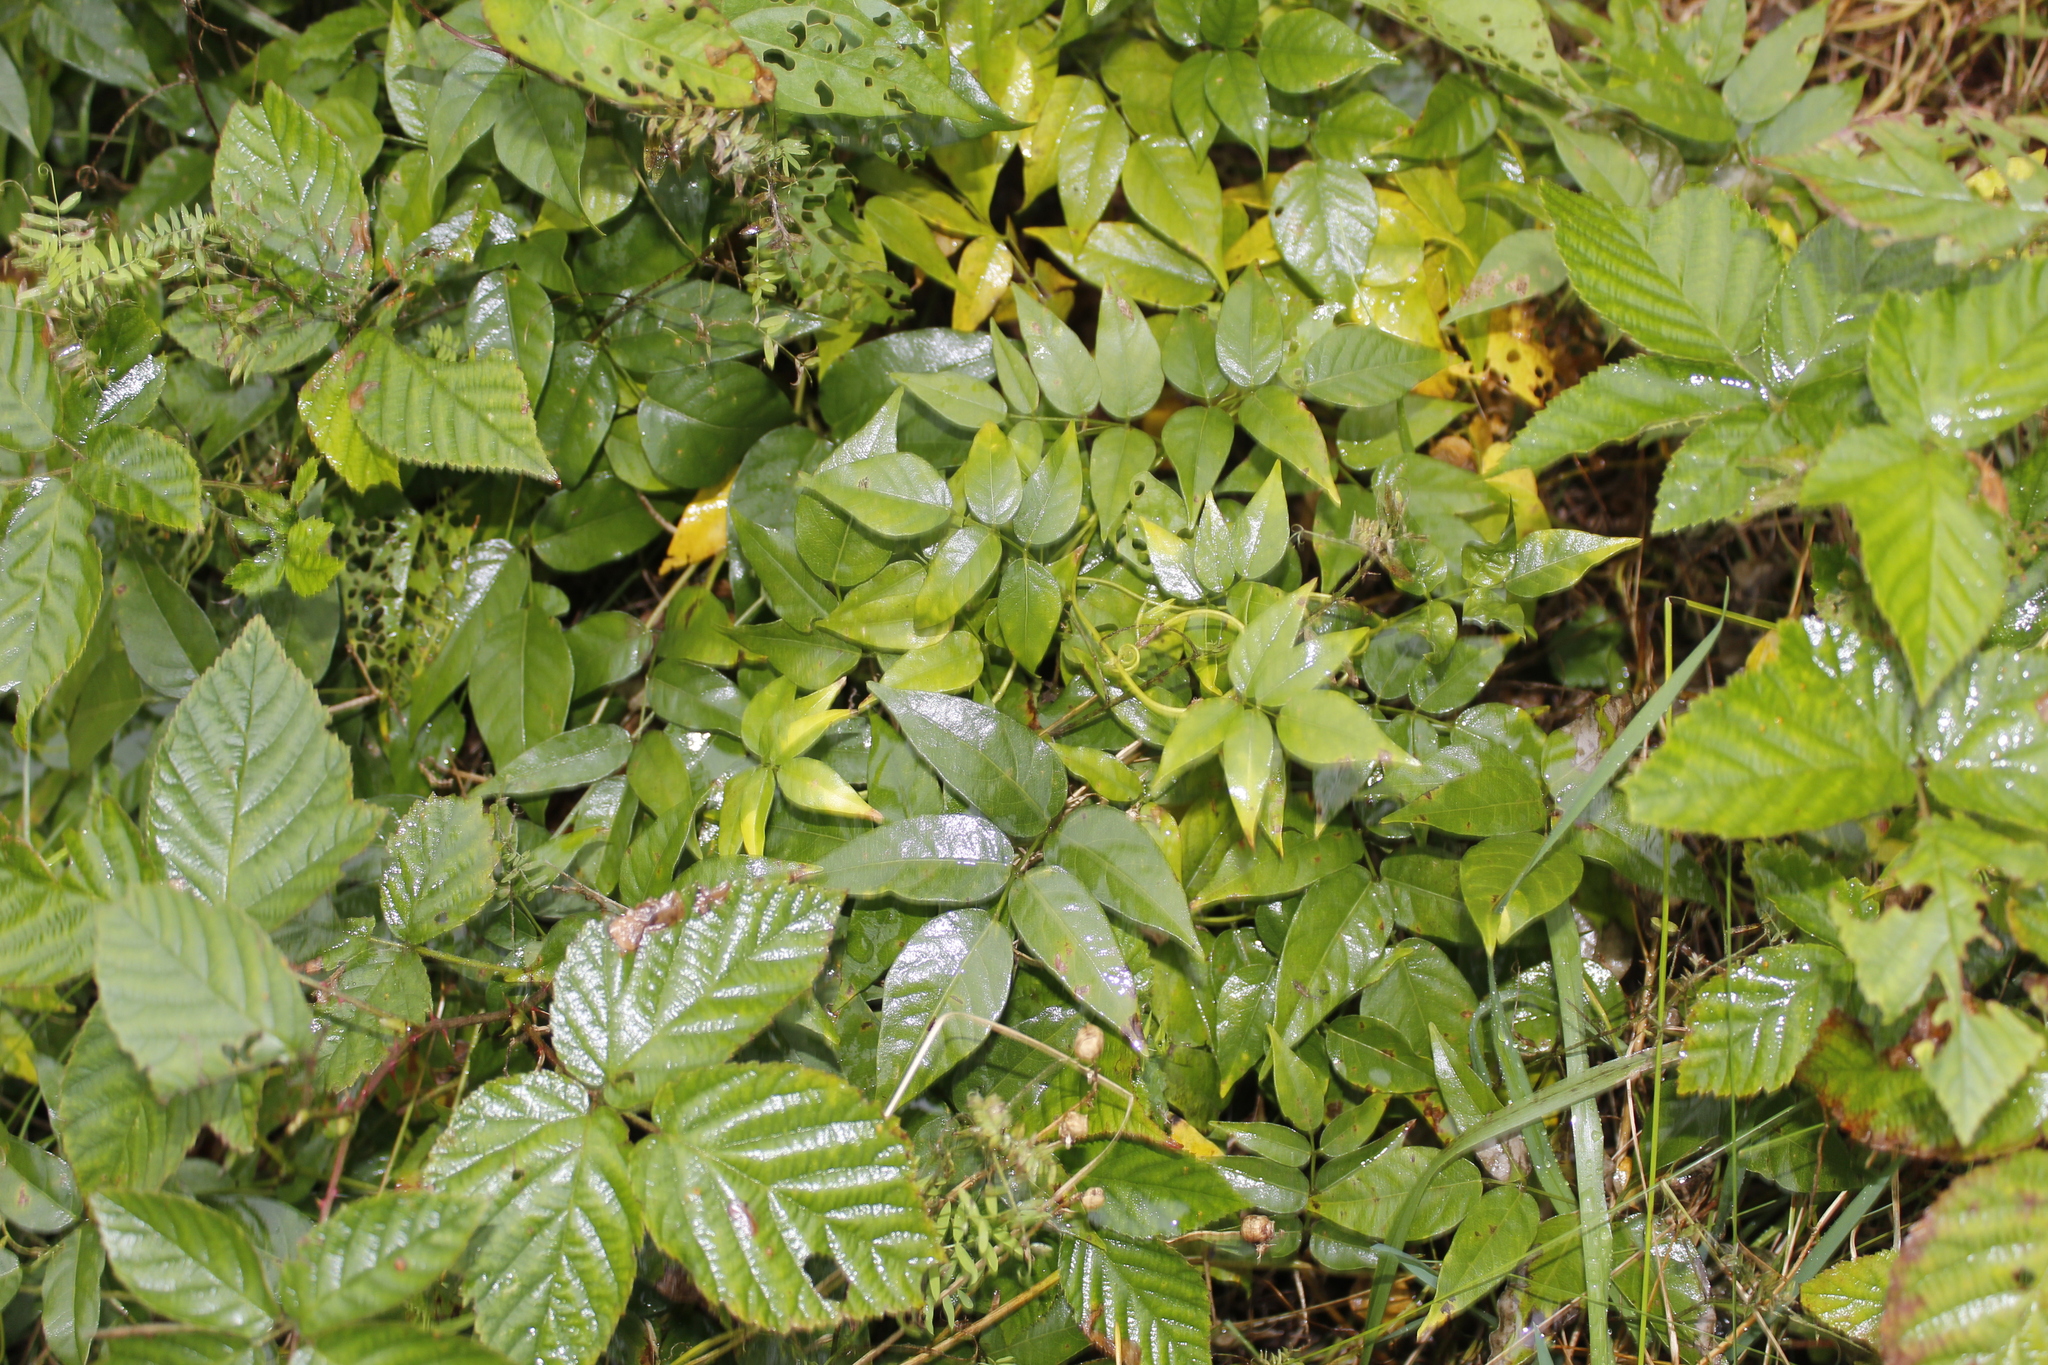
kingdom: Plantae
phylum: Tracheophyta
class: Magnoliopsida
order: Fabales
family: Fabaceae
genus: Apios
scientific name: Apios americana
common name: American potato-bean
